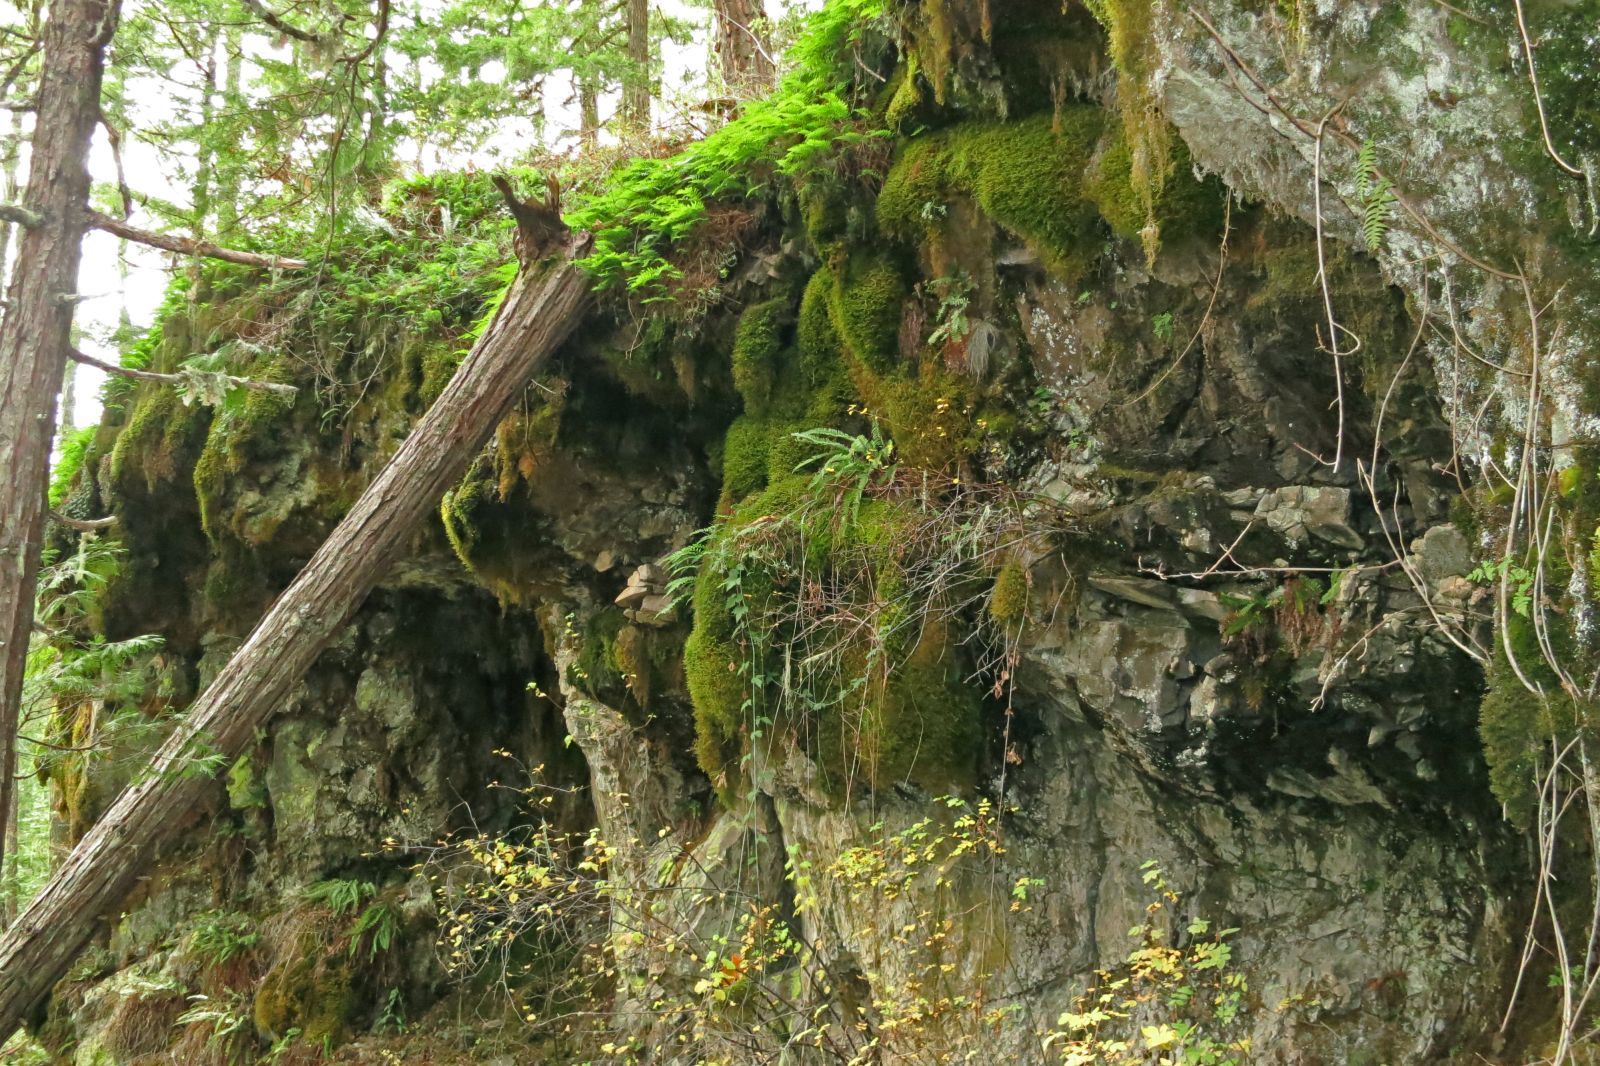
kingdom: Plantae
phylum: Tracheophyta
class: Polypodiopsida
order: Polypodiales
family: Dryopteridaceae
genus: Polystichum
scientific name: Polystichum californicum
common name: California sword fern
